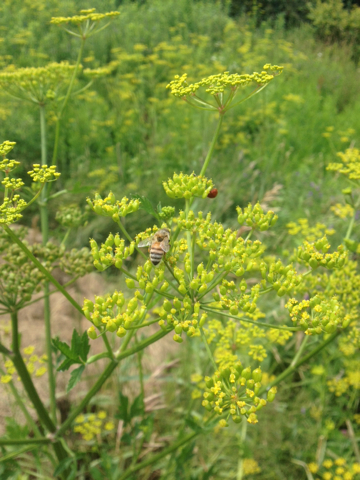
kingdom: Animalia
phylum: Arthropoda
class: Insecta
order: Hymenoptera
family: Apidae
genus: Apis
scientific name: Apis mellifera
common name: Honey bee
